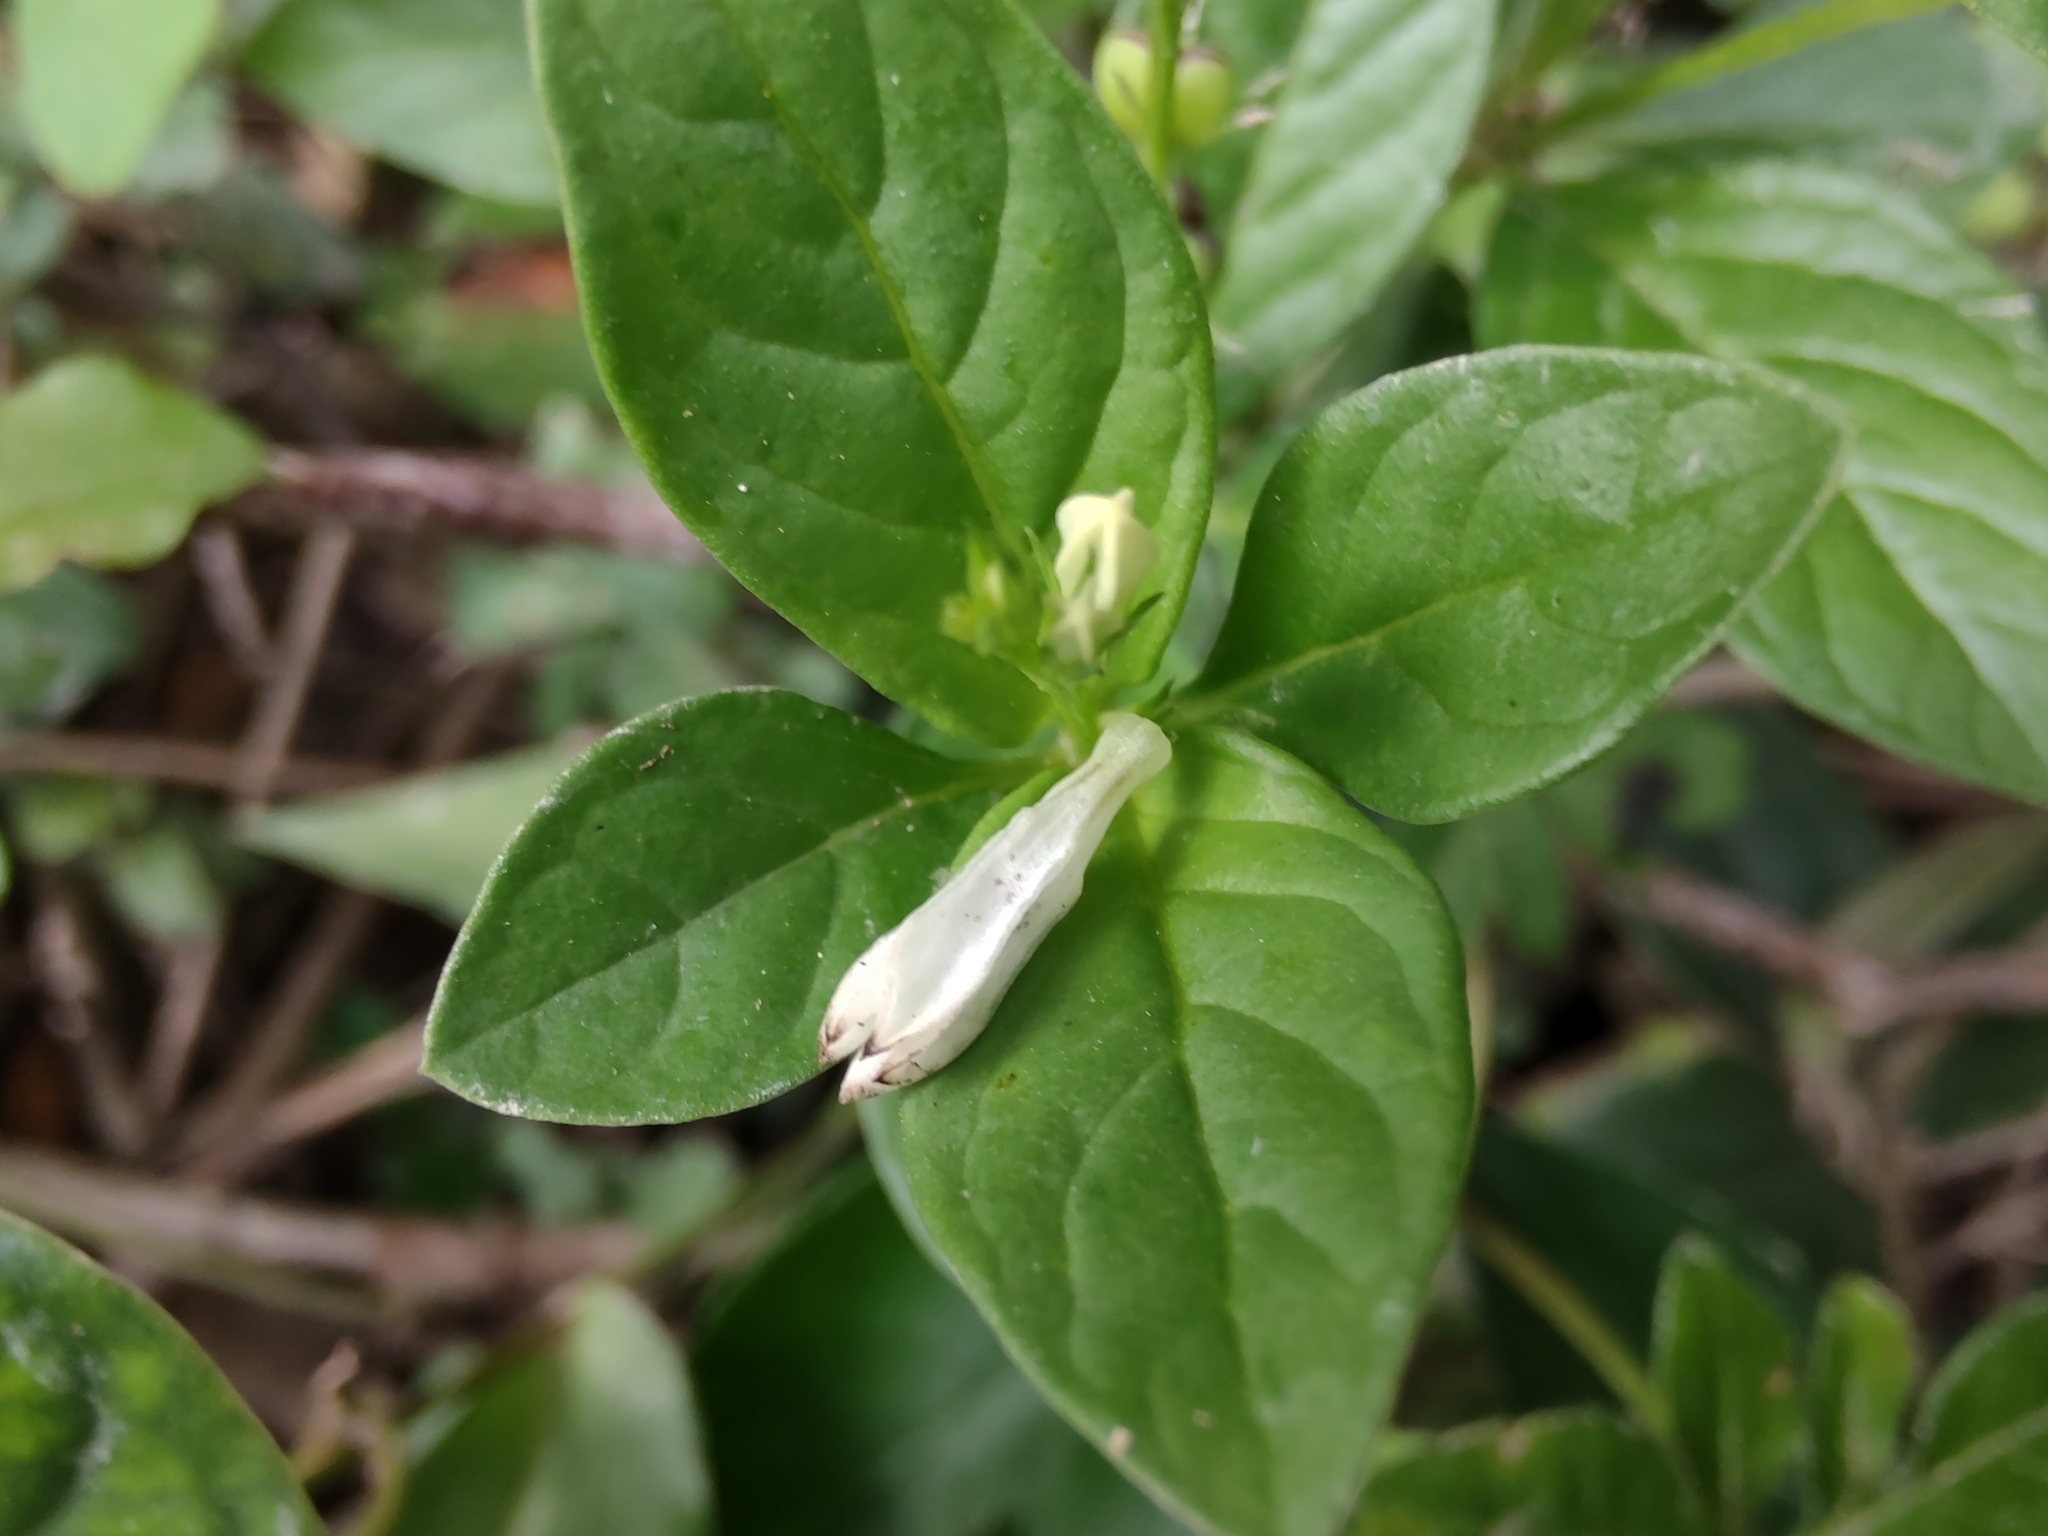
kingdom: Plantae
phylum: Tracheophyta
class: Magnoliopsida
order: Gentianales
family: Loganiaceae
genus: Spigelia
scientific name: Spigelia humboldtiana
